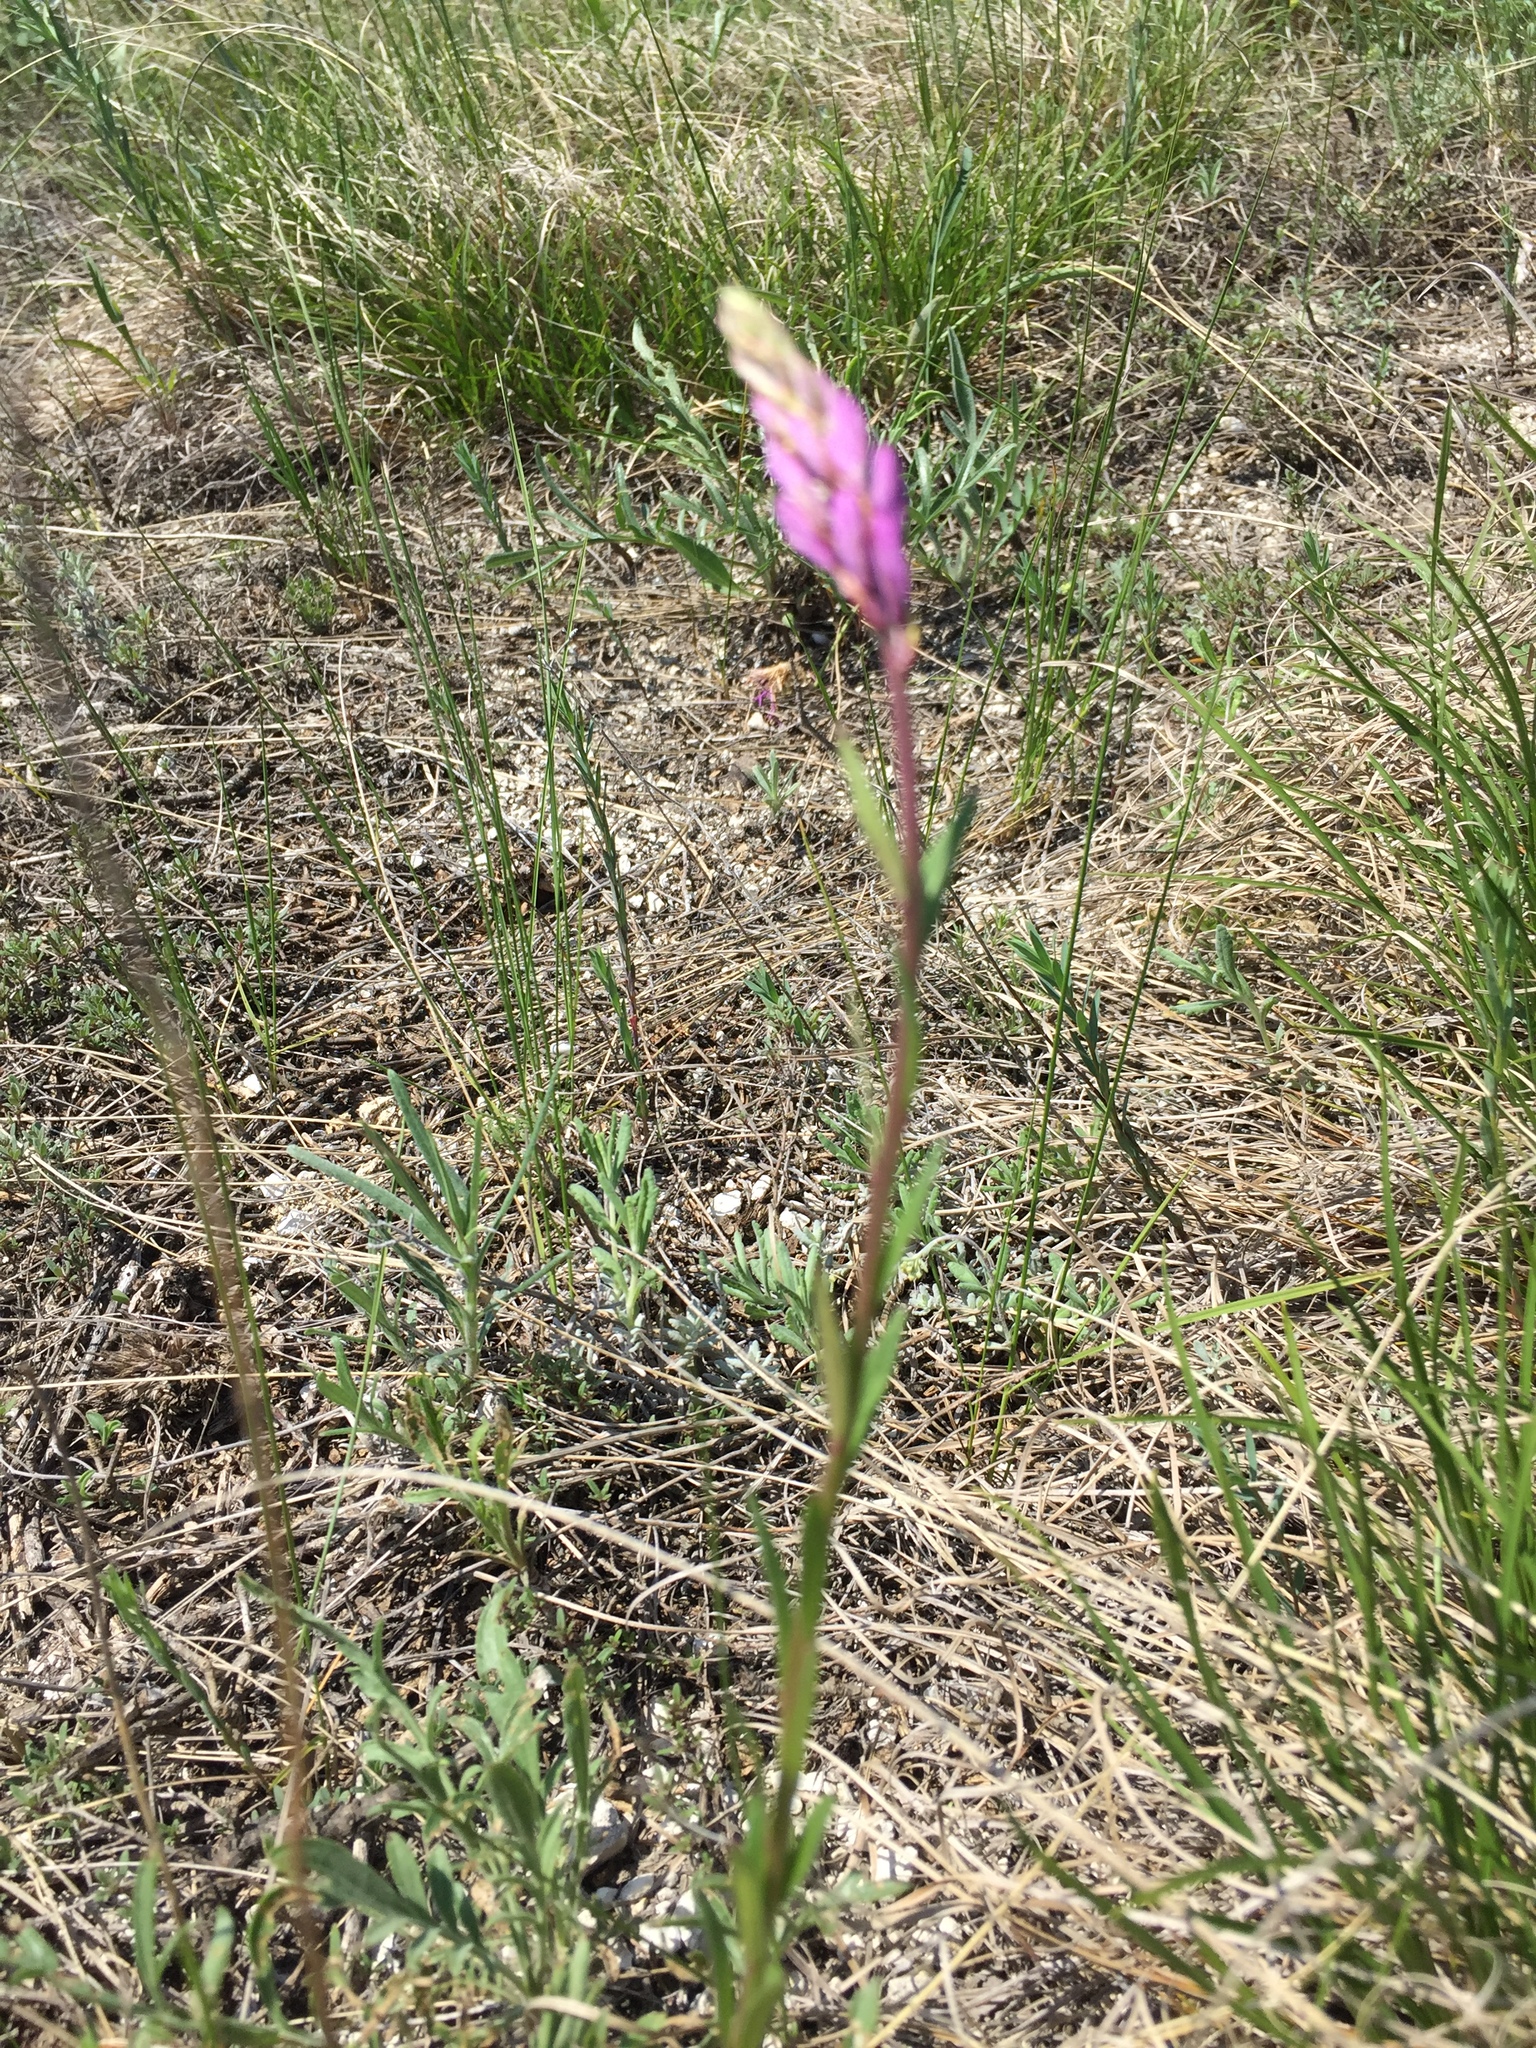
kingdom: Plantae
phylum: Tracheophyta
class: Magnoliopsida
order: Fabales
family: Polygalaceae
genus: Polygala
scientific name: Polygala nicaeensis
